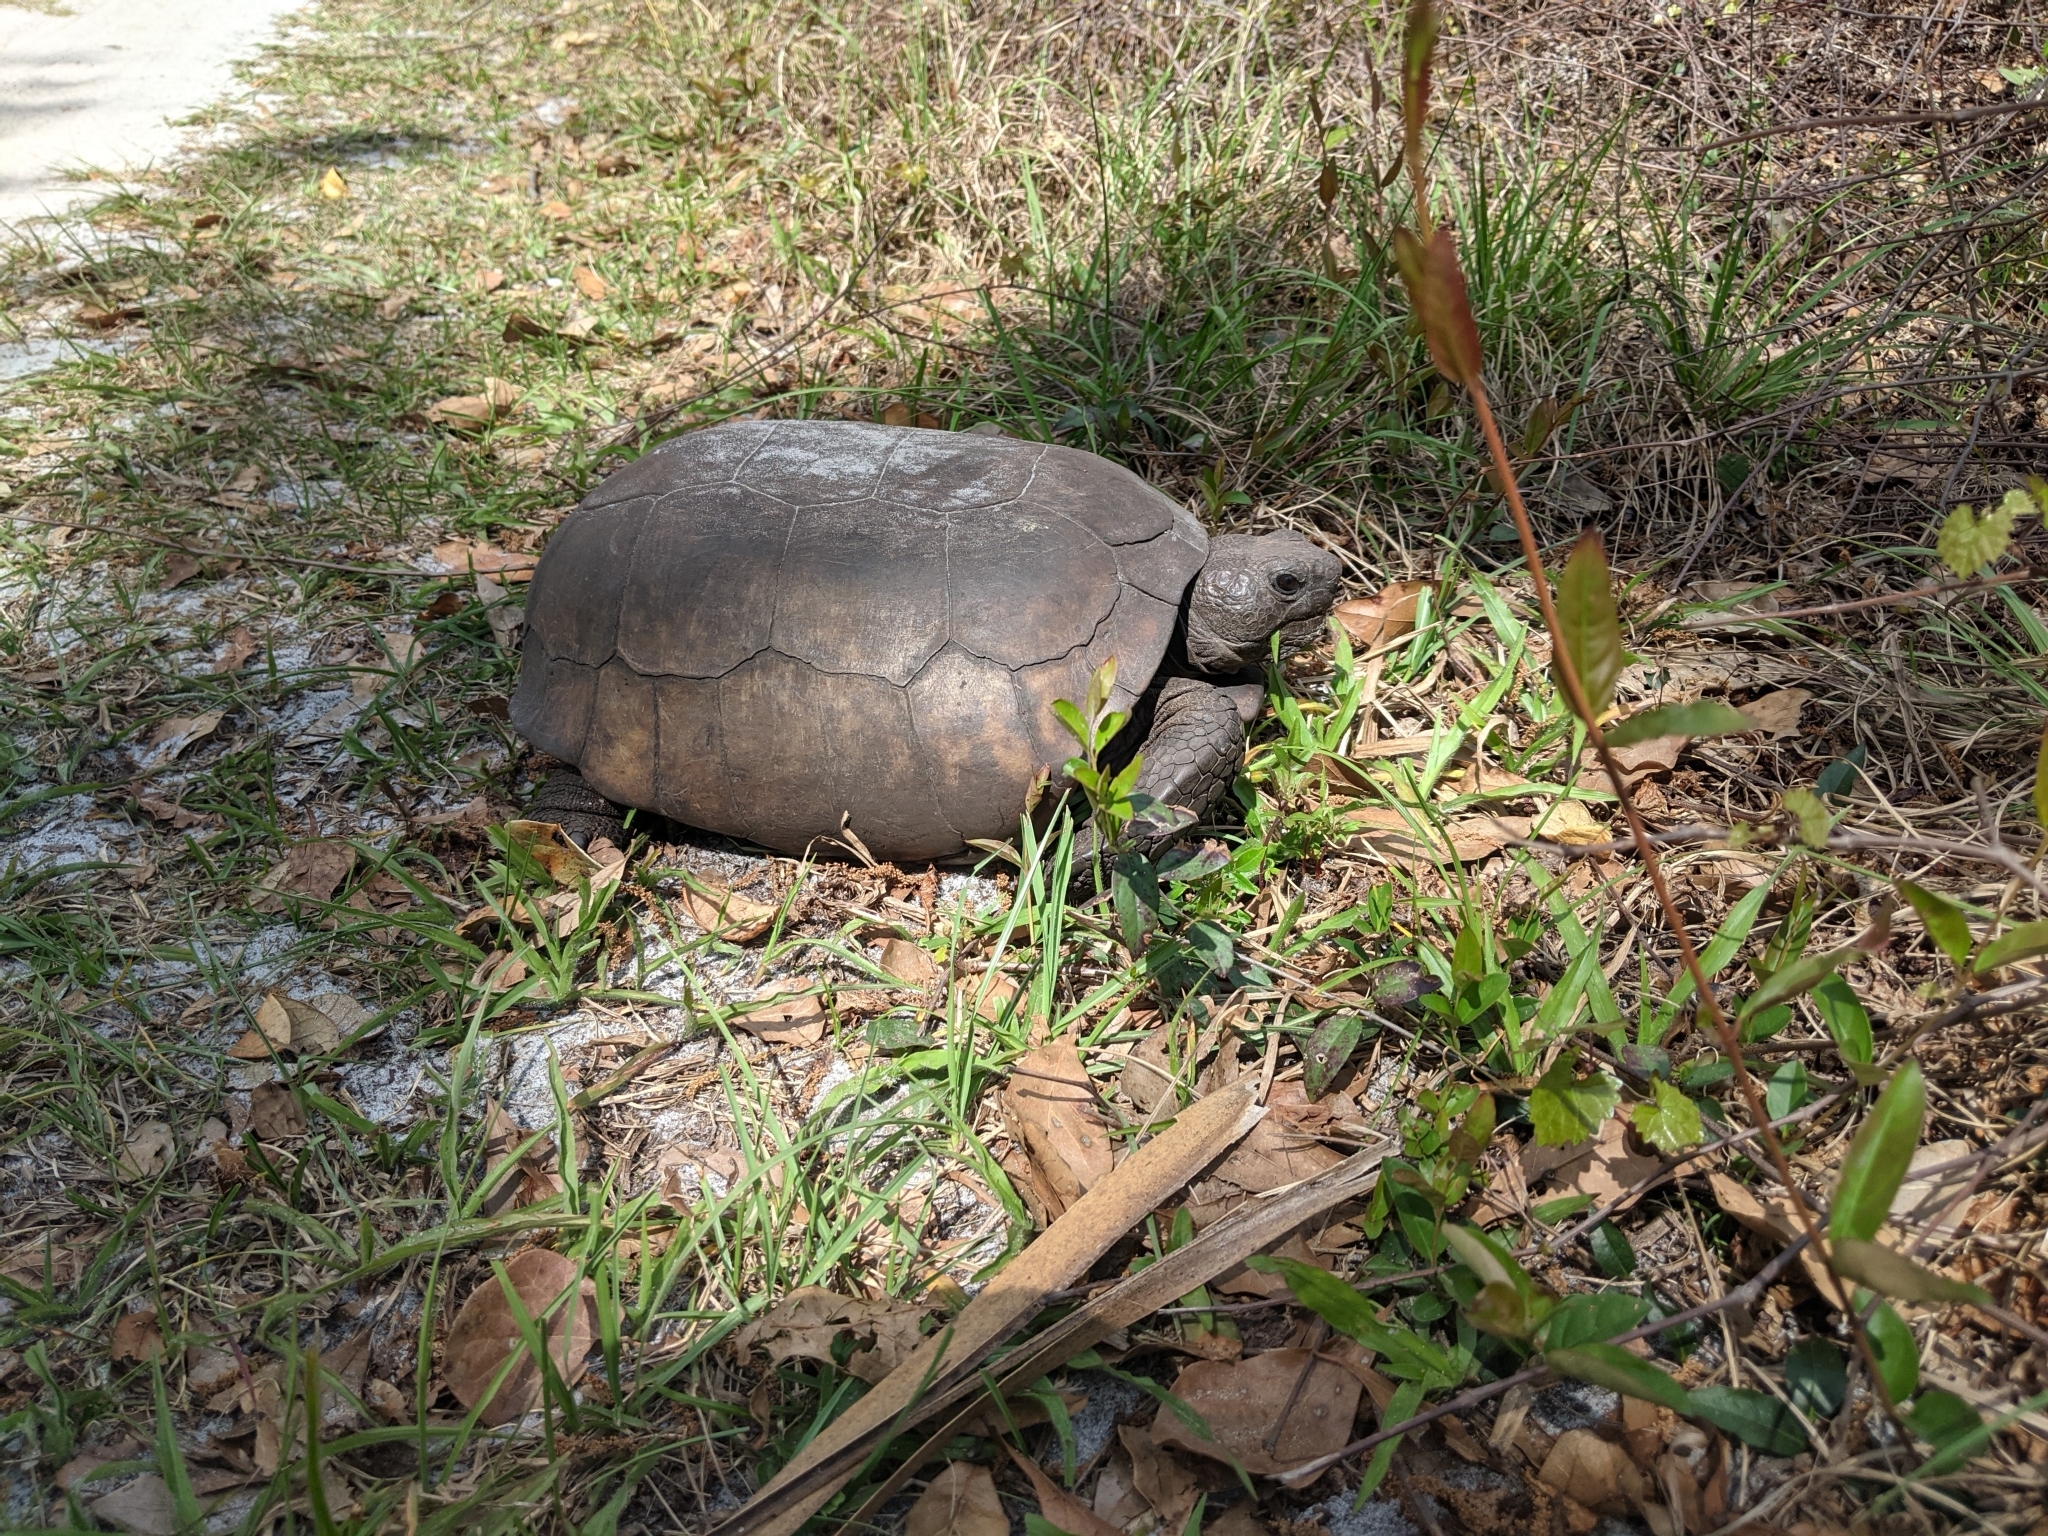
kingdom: Animalia
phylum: Chordata
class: Testudines
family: Testudinidae
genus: Gopherus
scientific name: Gopherus polyphemus
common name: Florida gopher tortoise
